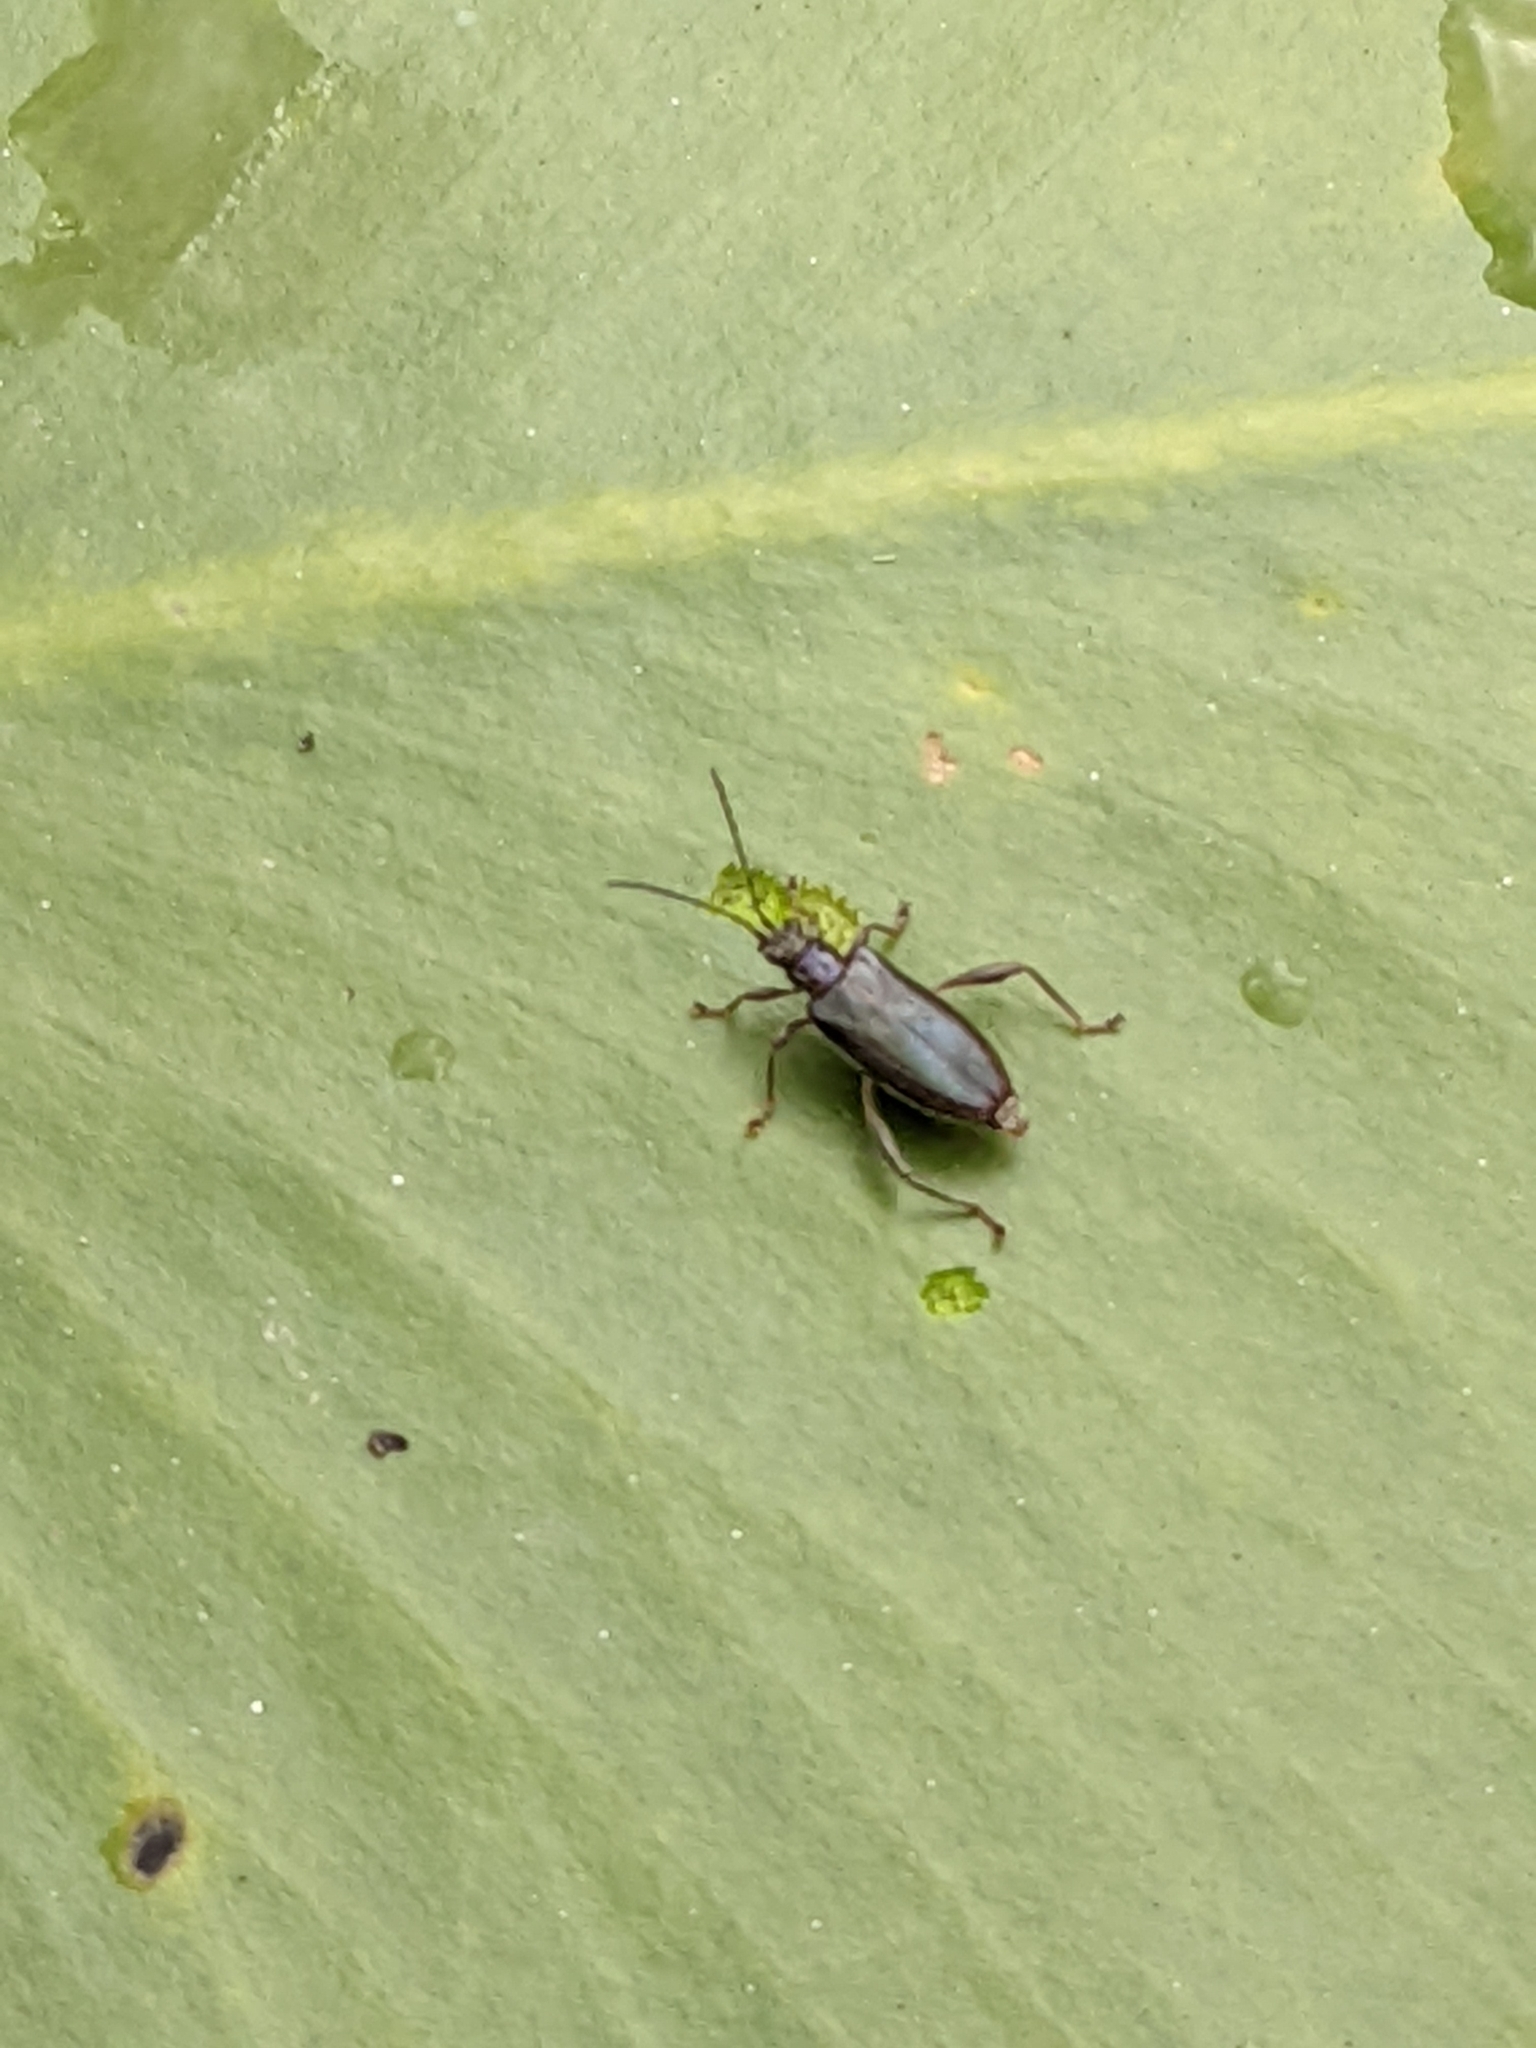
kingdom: Animalia
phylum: Arthropoda
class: Insecta
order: Coleoptera
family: Chrysomelidae
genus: Donacia
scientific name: Donacia crassipes
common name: Water-lily reed beetle
